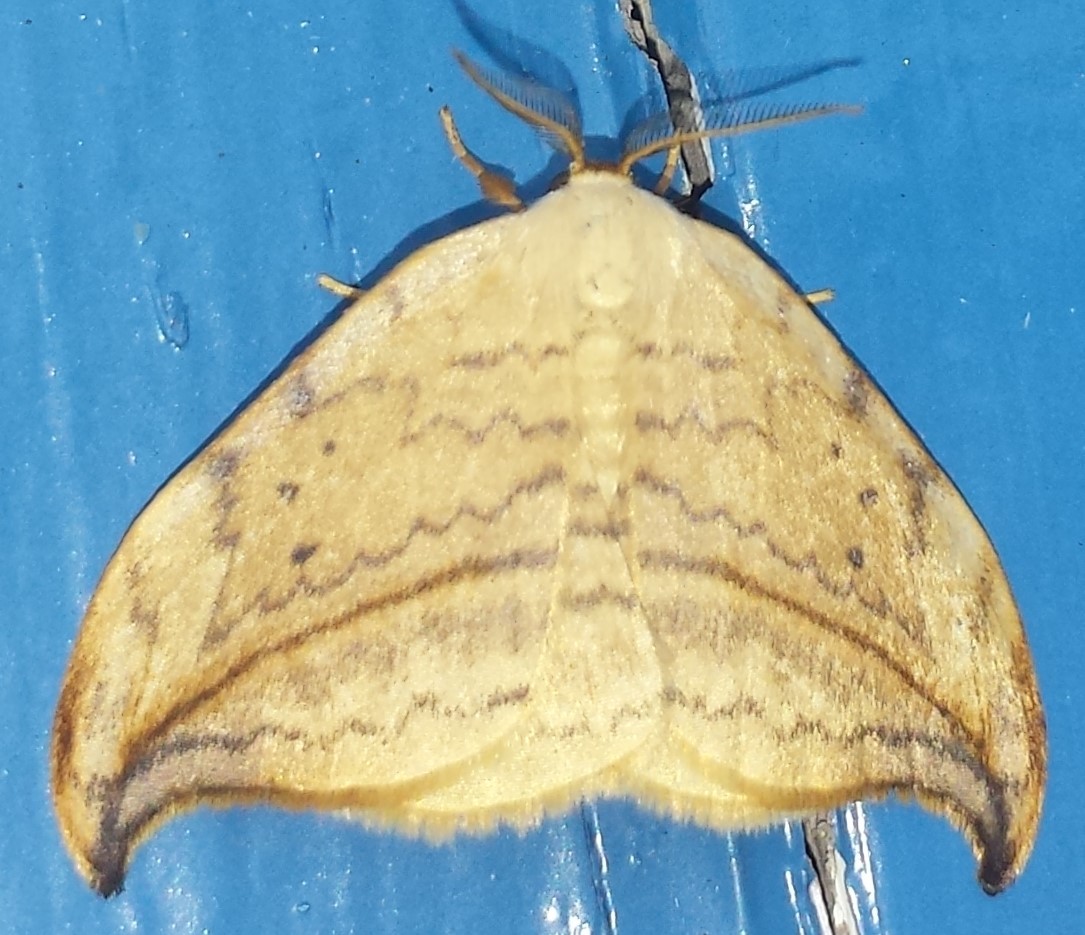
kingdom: Animalia
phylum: Arthropoda
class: Insecta
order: Lepidoptera
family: Drepanidae
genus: Drepana
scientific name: Drepana arcuata
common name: Arched hooktip moth
